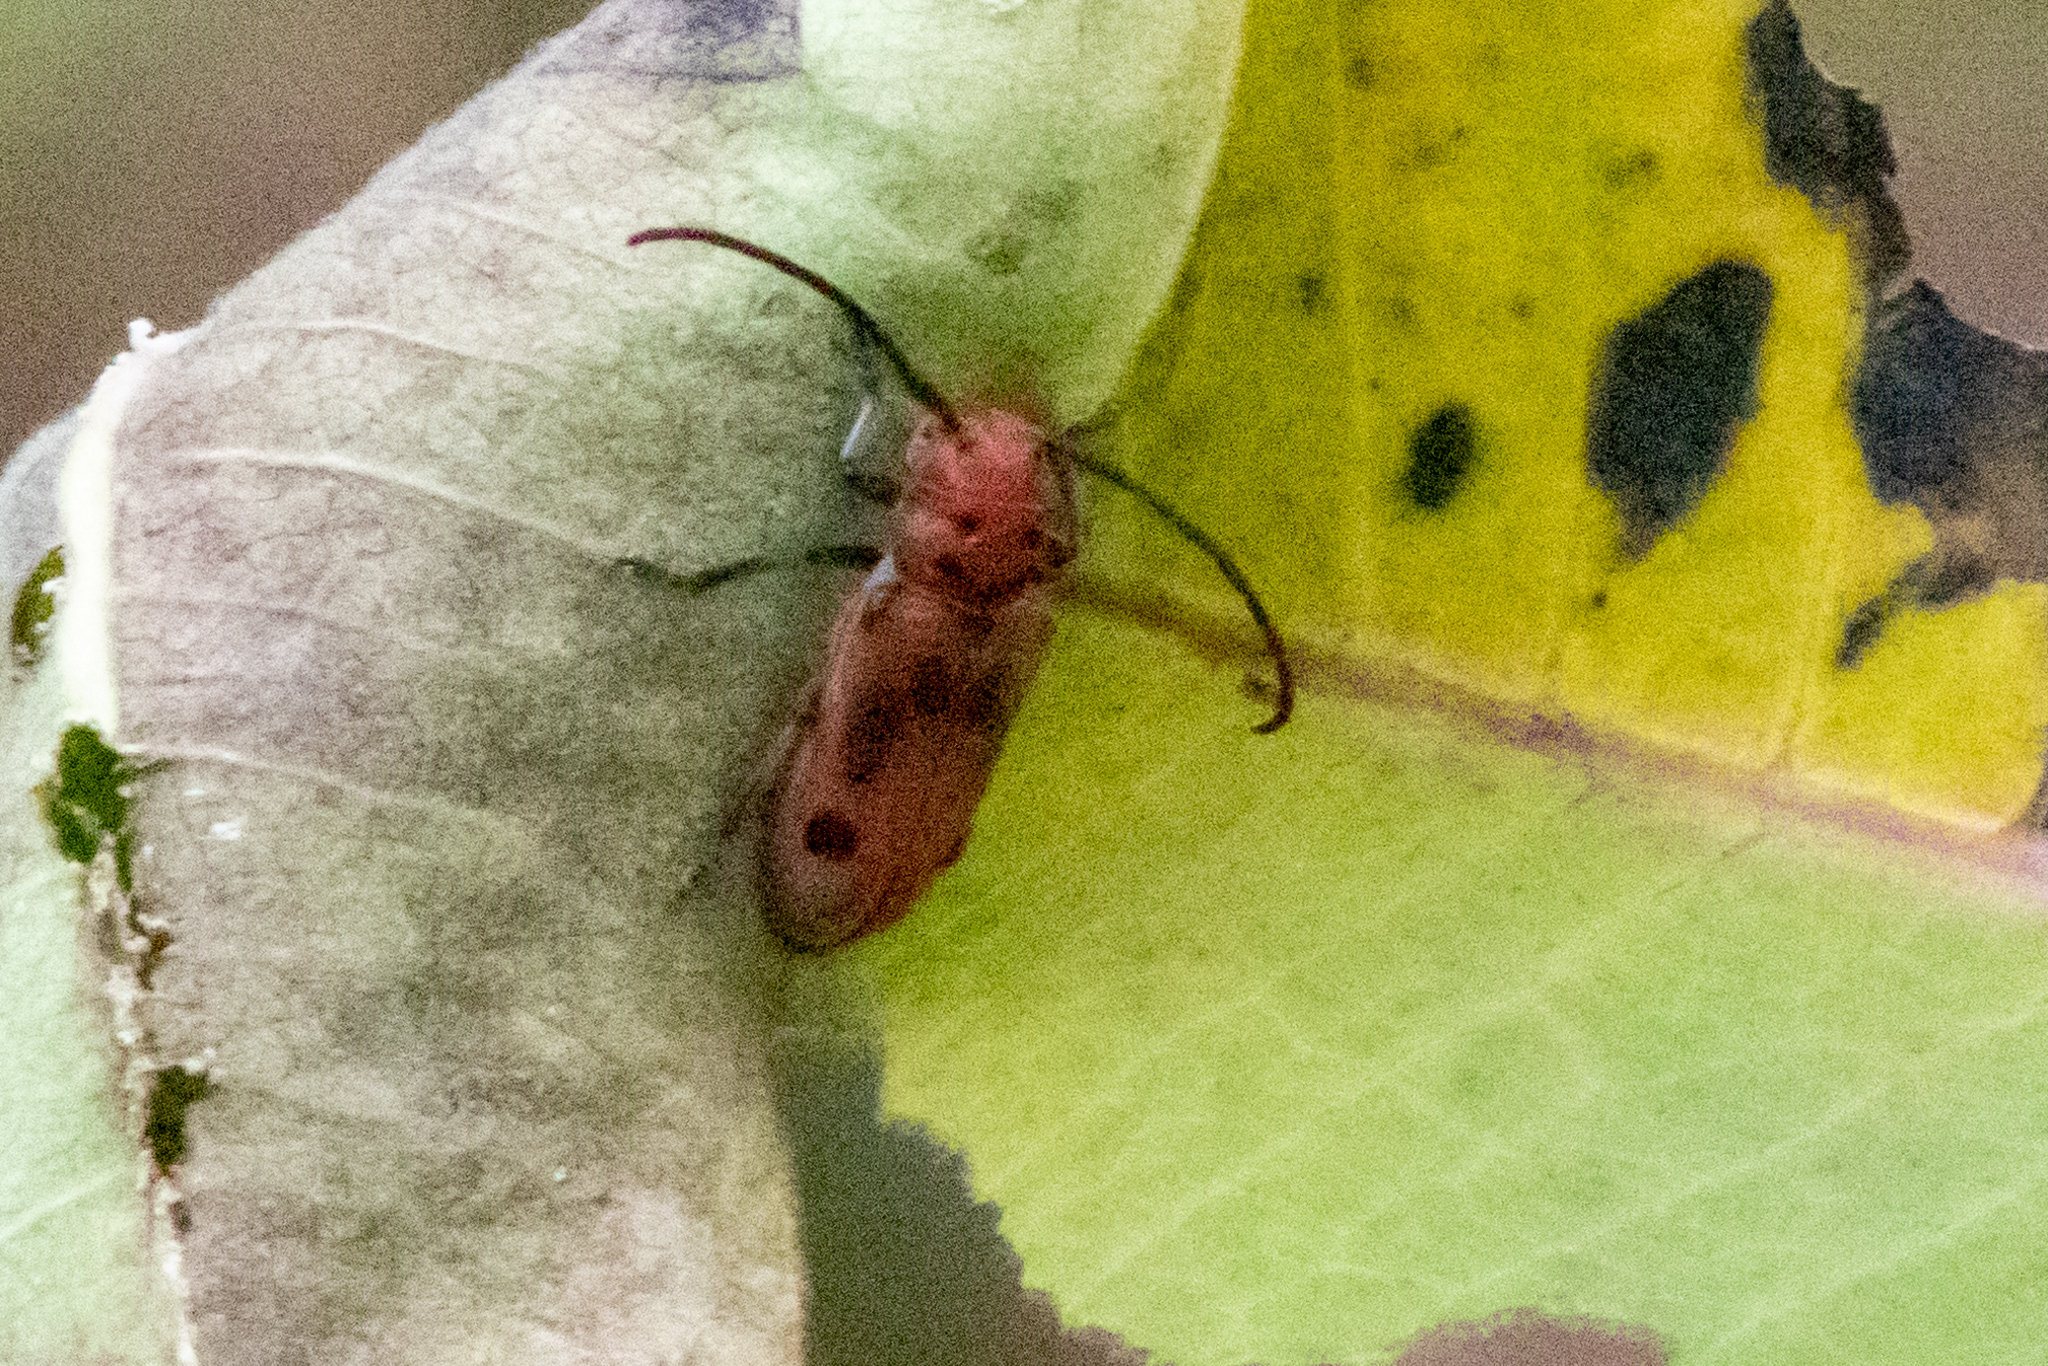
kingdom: Animalia
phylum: Arthropoda
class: Insecta
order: Coleoptera
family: Cerambycidae
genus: Tetraopes
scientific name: Tetraopes tetrophthalmus
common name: Red milkweed beetle
